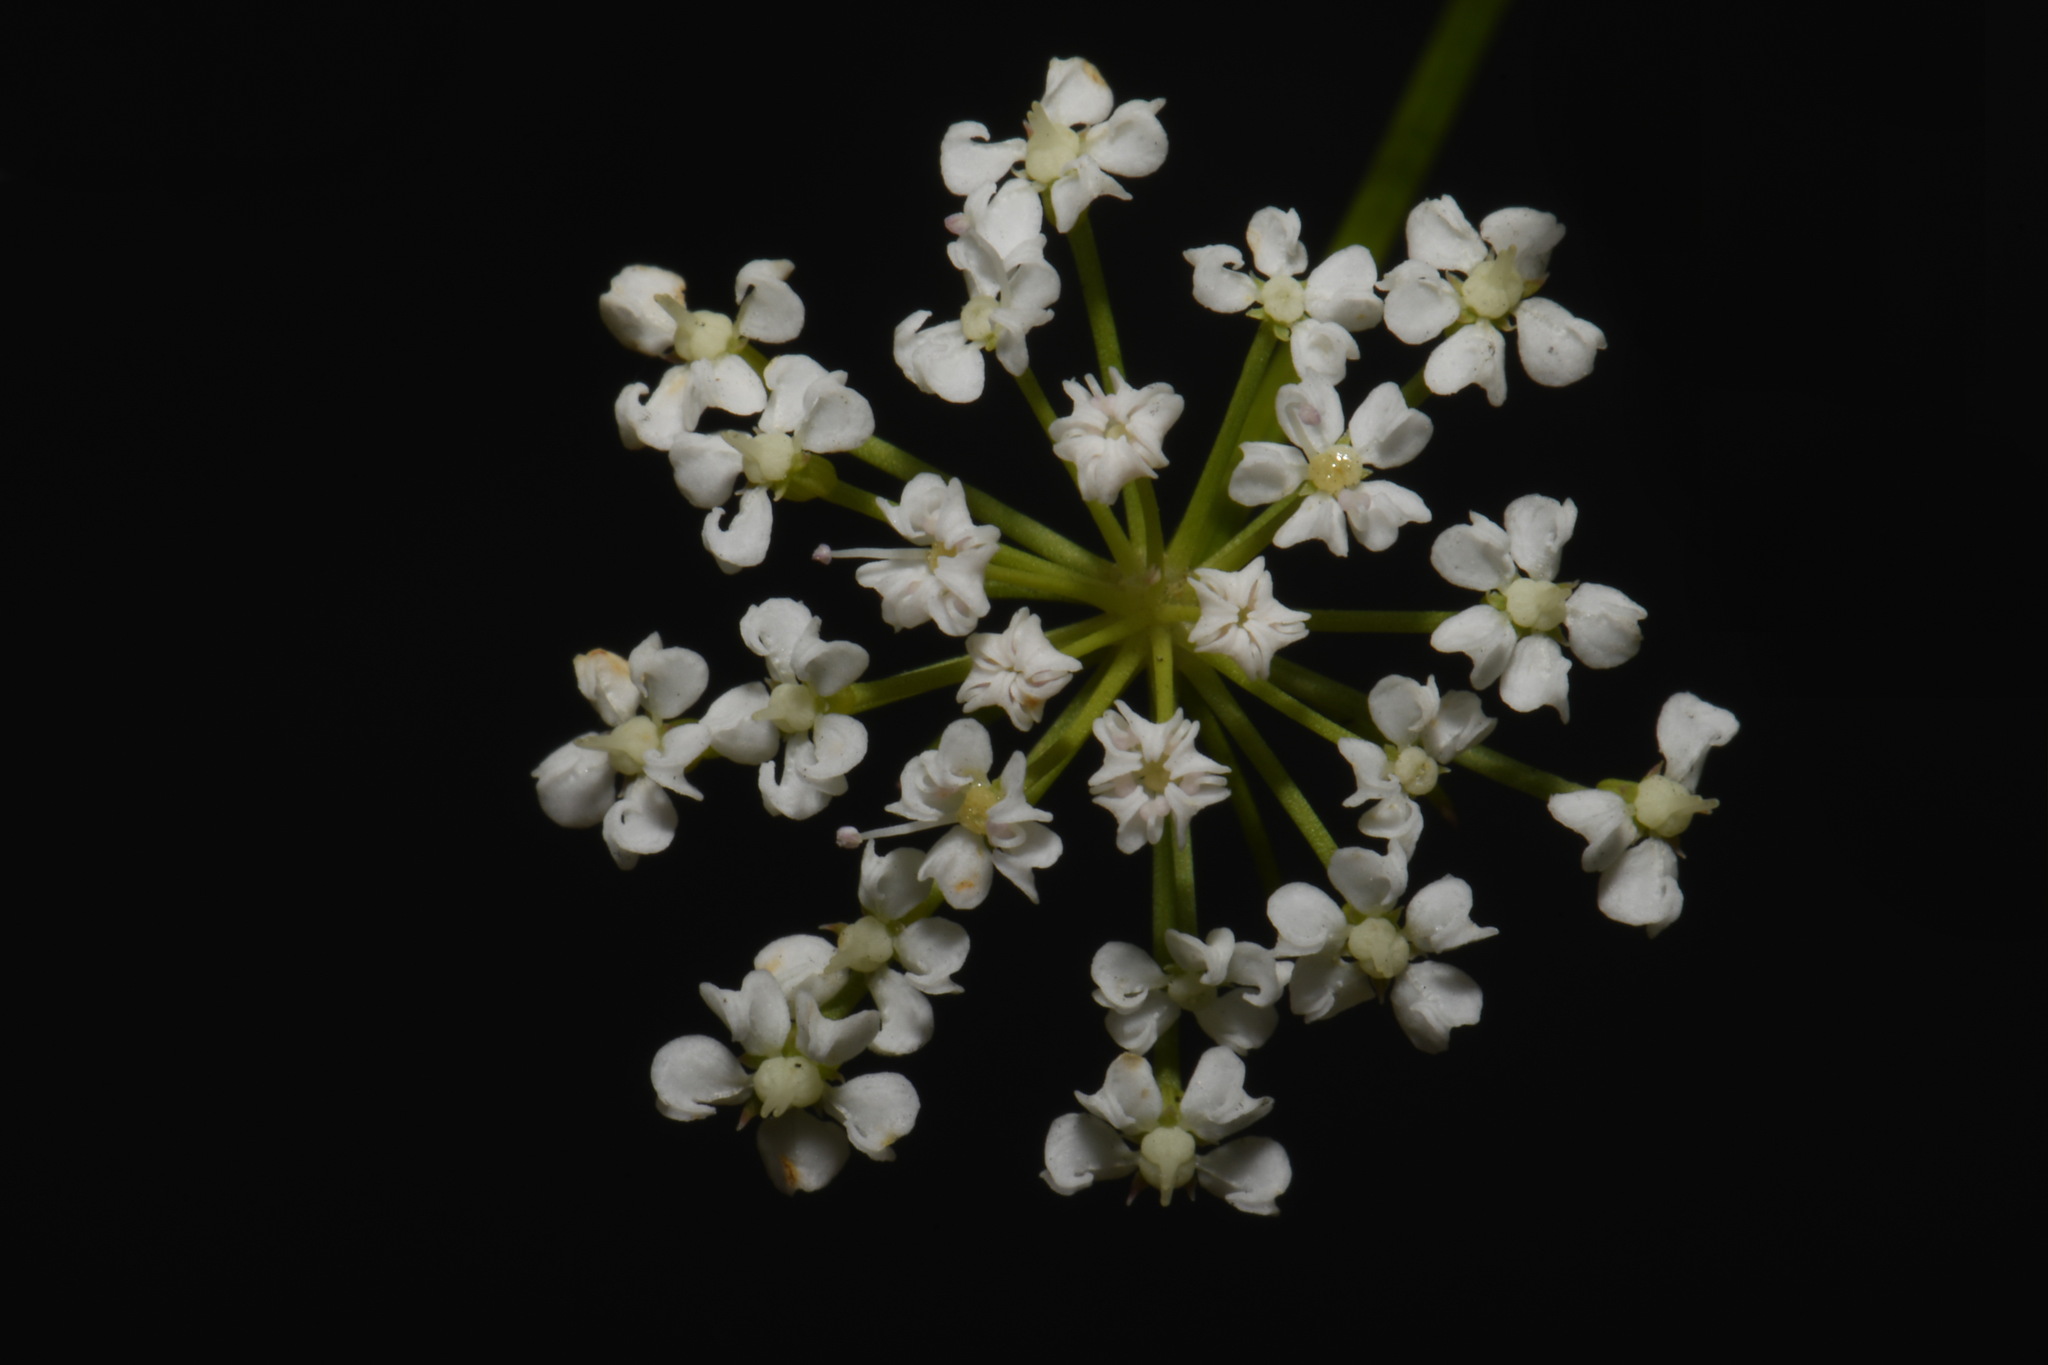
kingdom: Plantae
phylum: Tracheophyta
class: Magnoliopsida
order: Apiales
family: Apiaceae
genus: Ptilimnium
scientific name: Ptilimnium costatum
